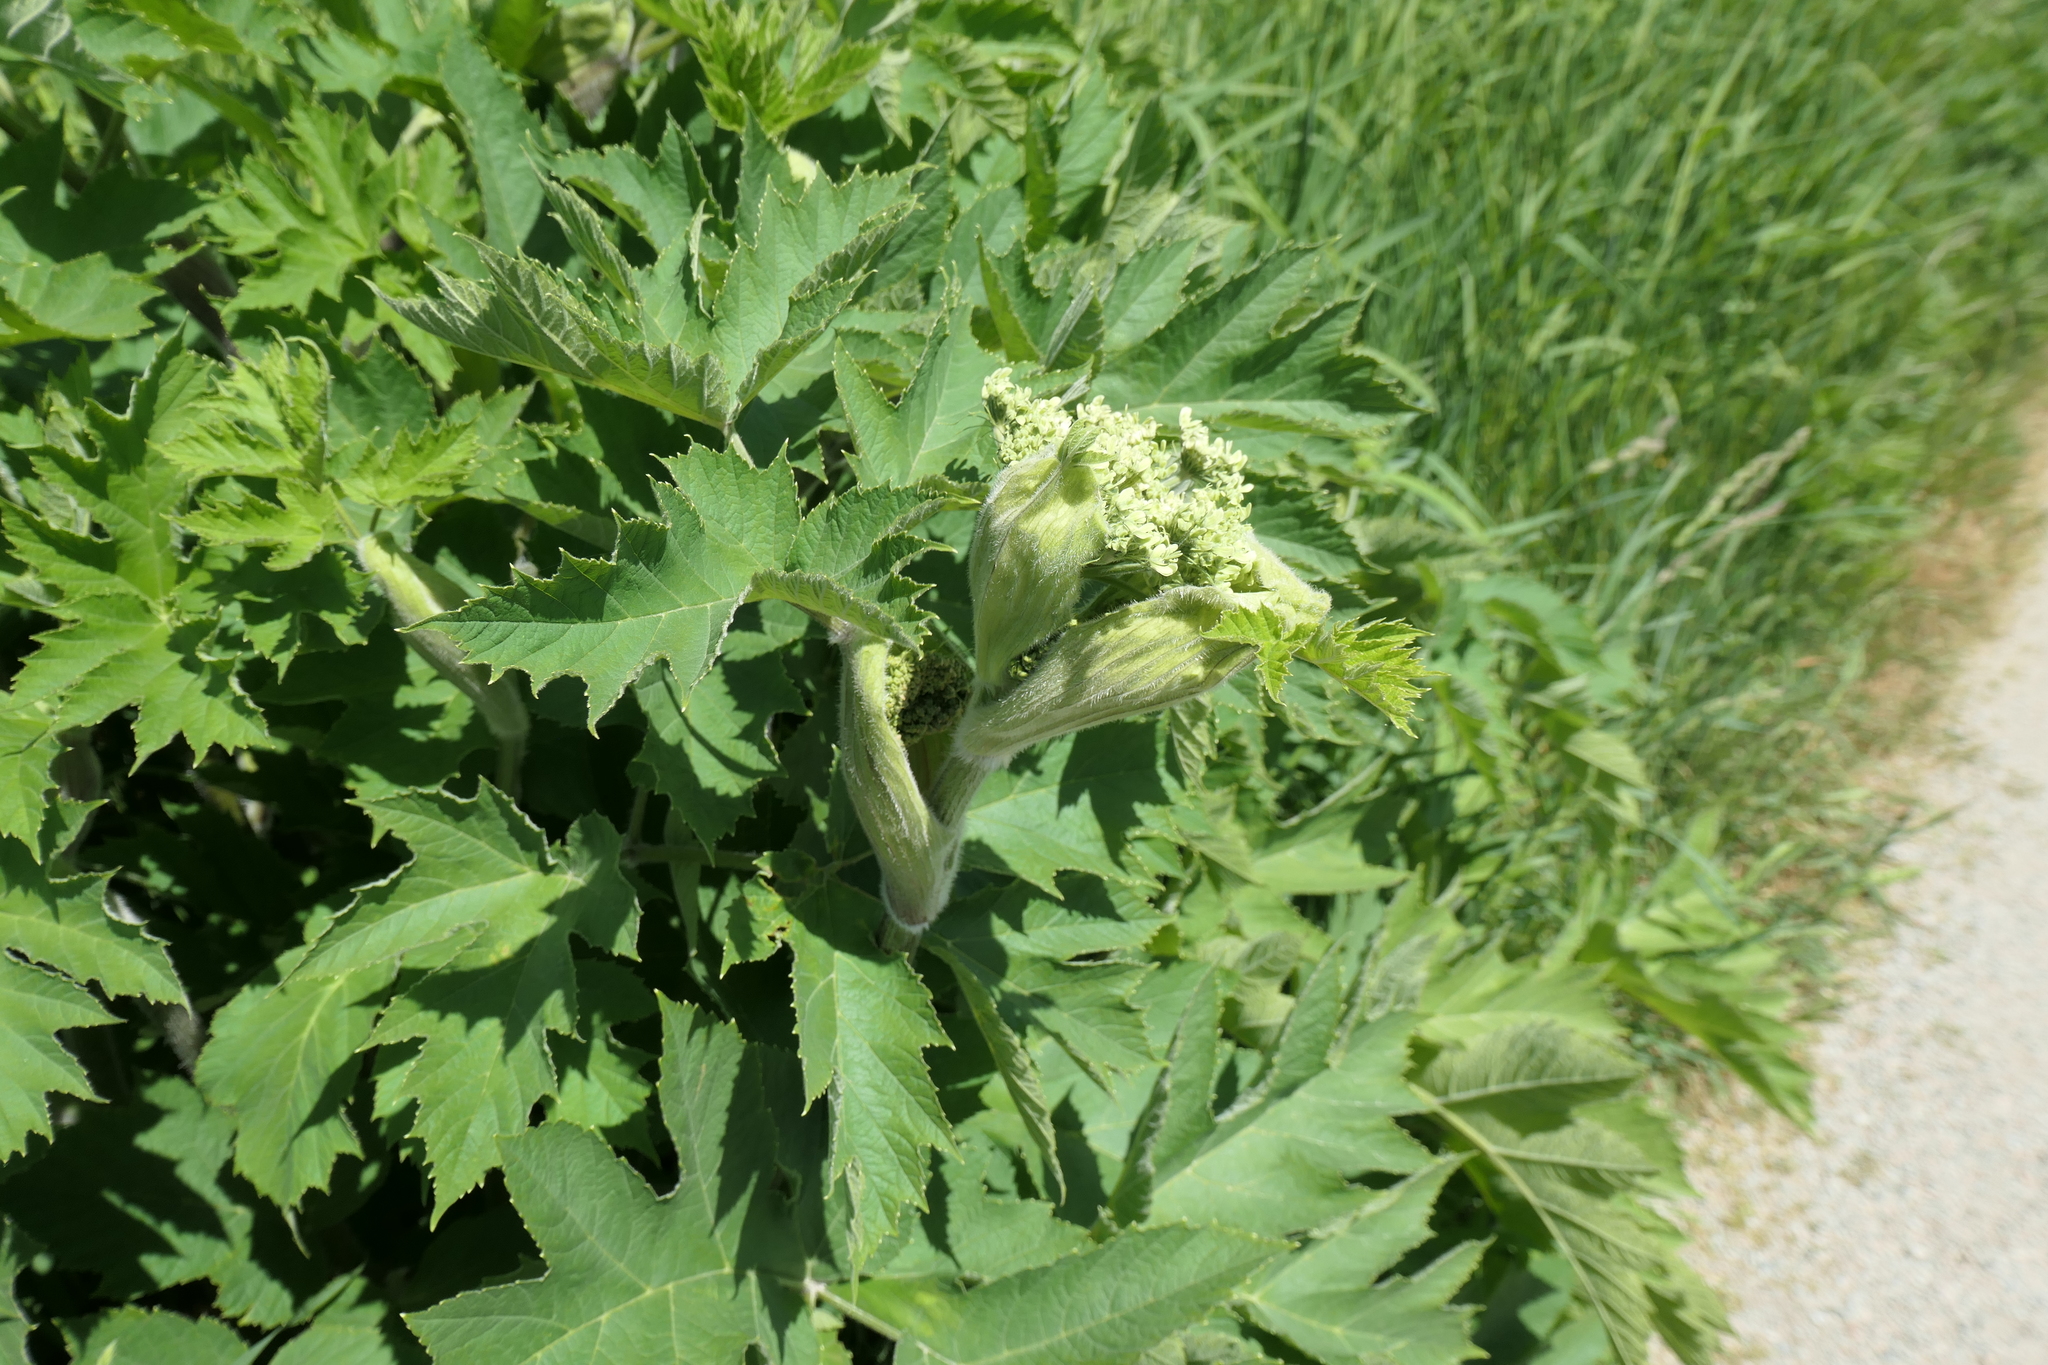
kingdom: Plantae
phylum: Tracheophyta
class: Magnoliopsida
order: Apiales
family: Apiaceae
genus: Heracleum
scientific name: Heracleum maximum
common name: American cow parsnip
